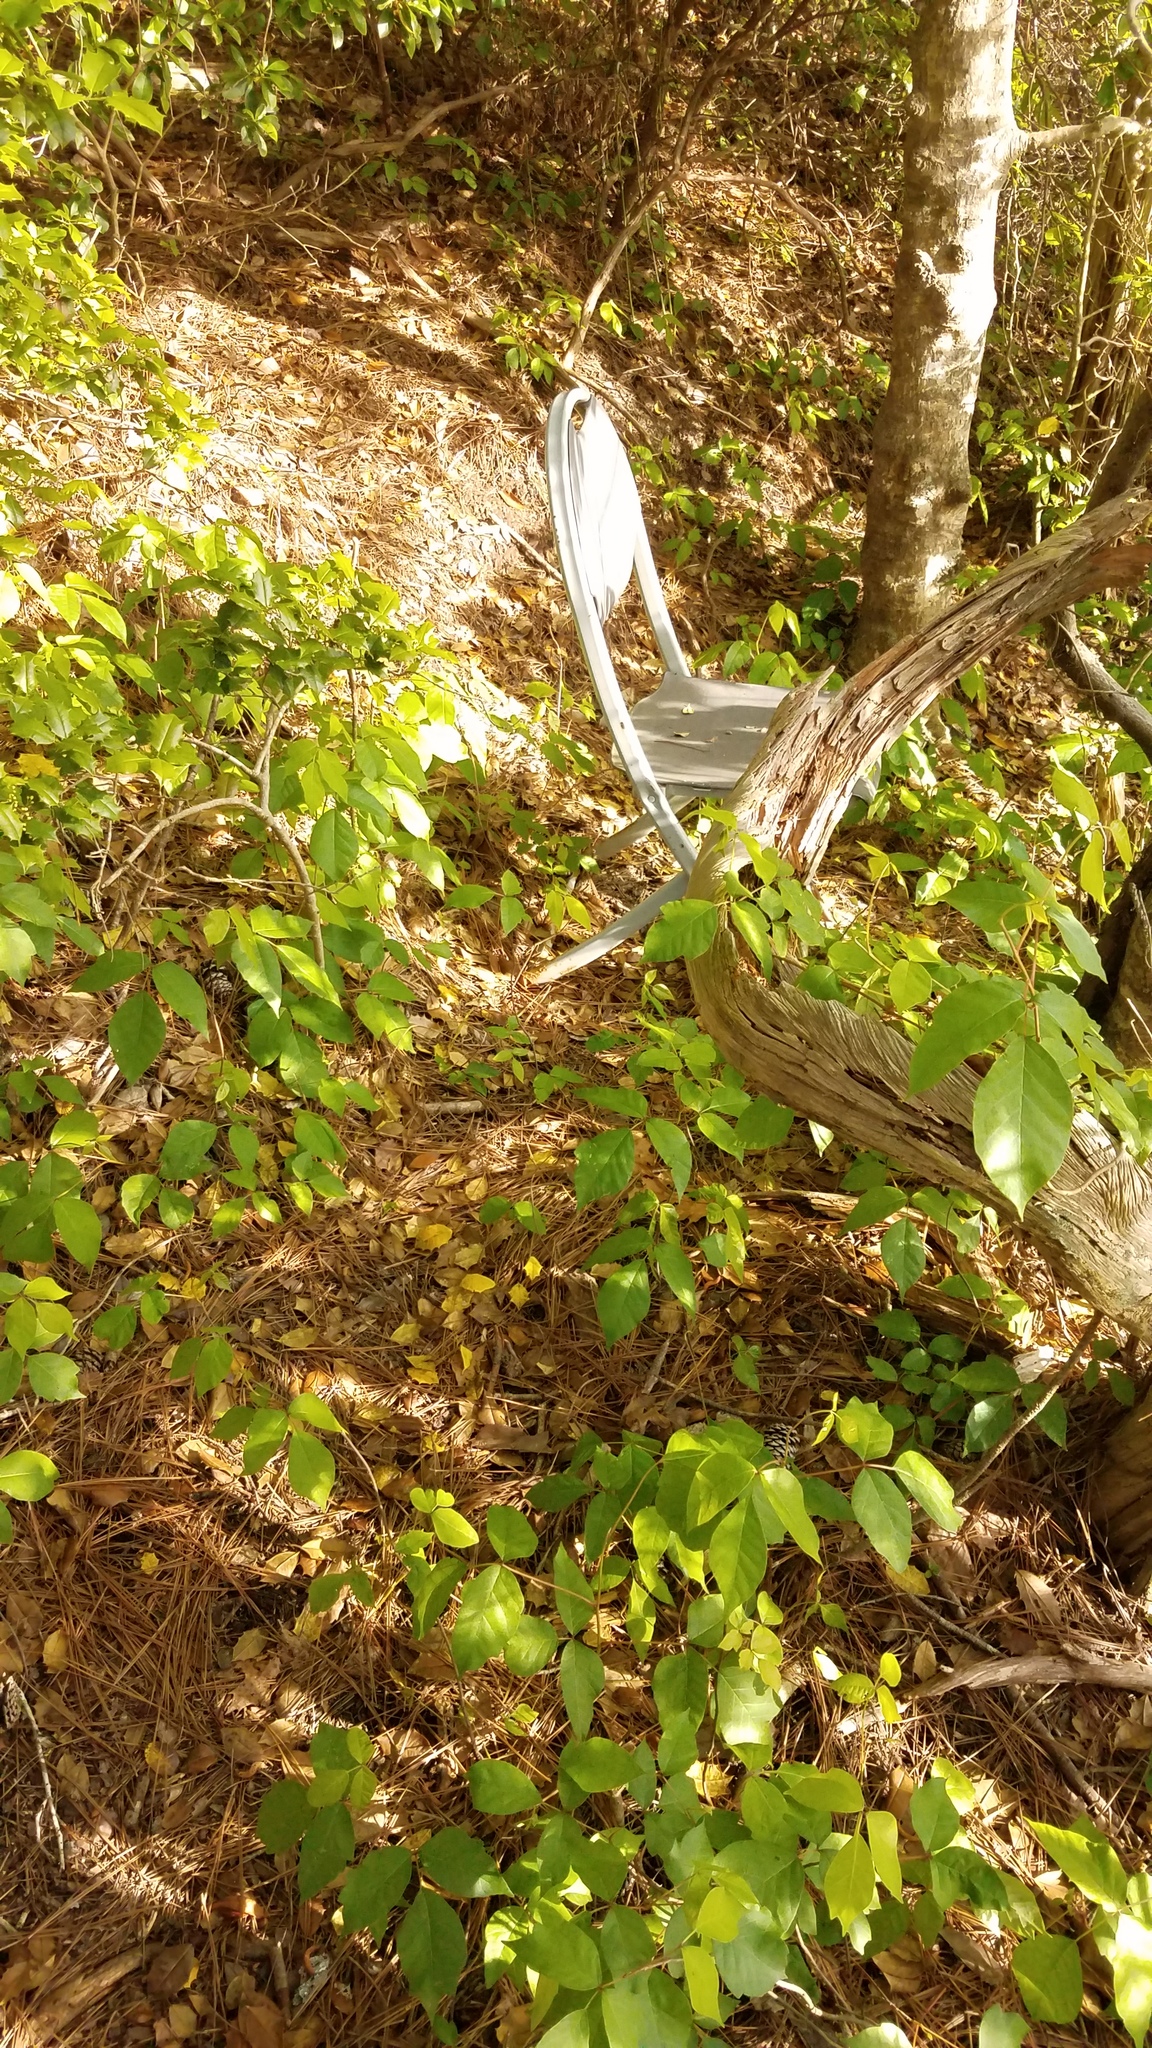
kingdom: Plantae
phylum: Tracheophyta
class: Magnoliopsida
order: Sapindales
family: Anacardiaceae
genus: Toxicodendron
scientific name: Toxicodendron radicans
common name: Poison ivy
